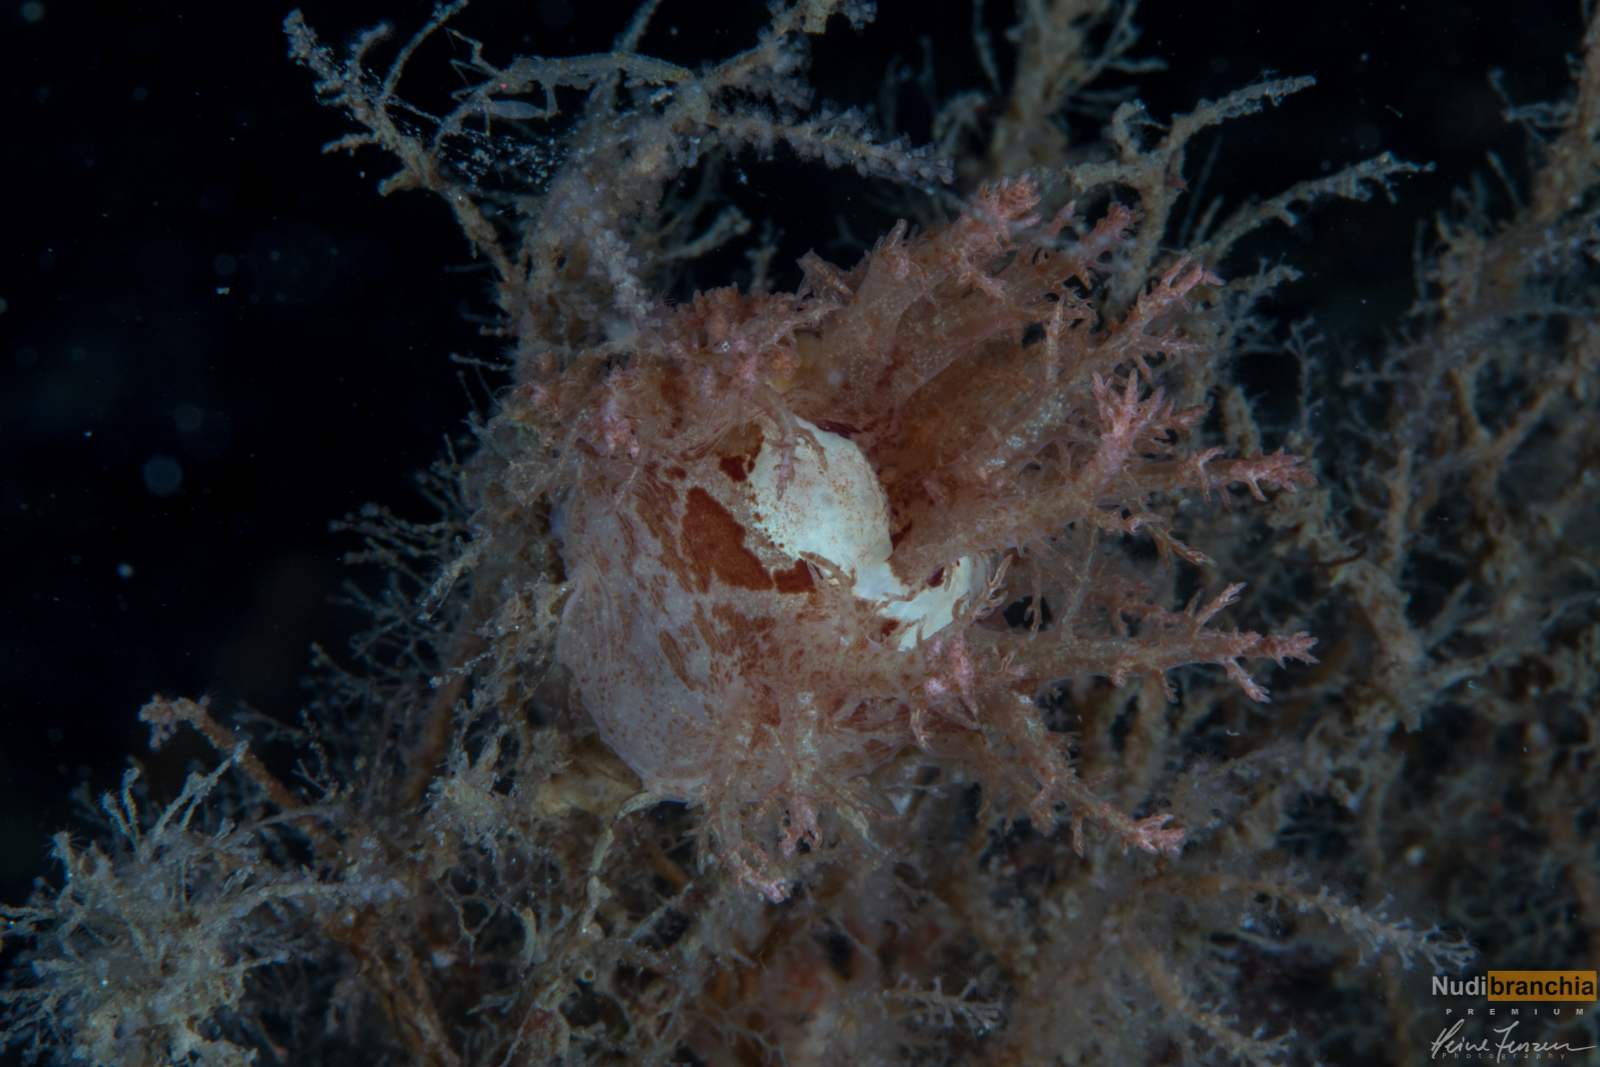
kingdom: Animalia
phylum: Mollusca
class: Gastropoda
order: Nudibranchia
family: Dendronotidae
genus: Dendronotus
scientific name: Dendronotus europaeus
